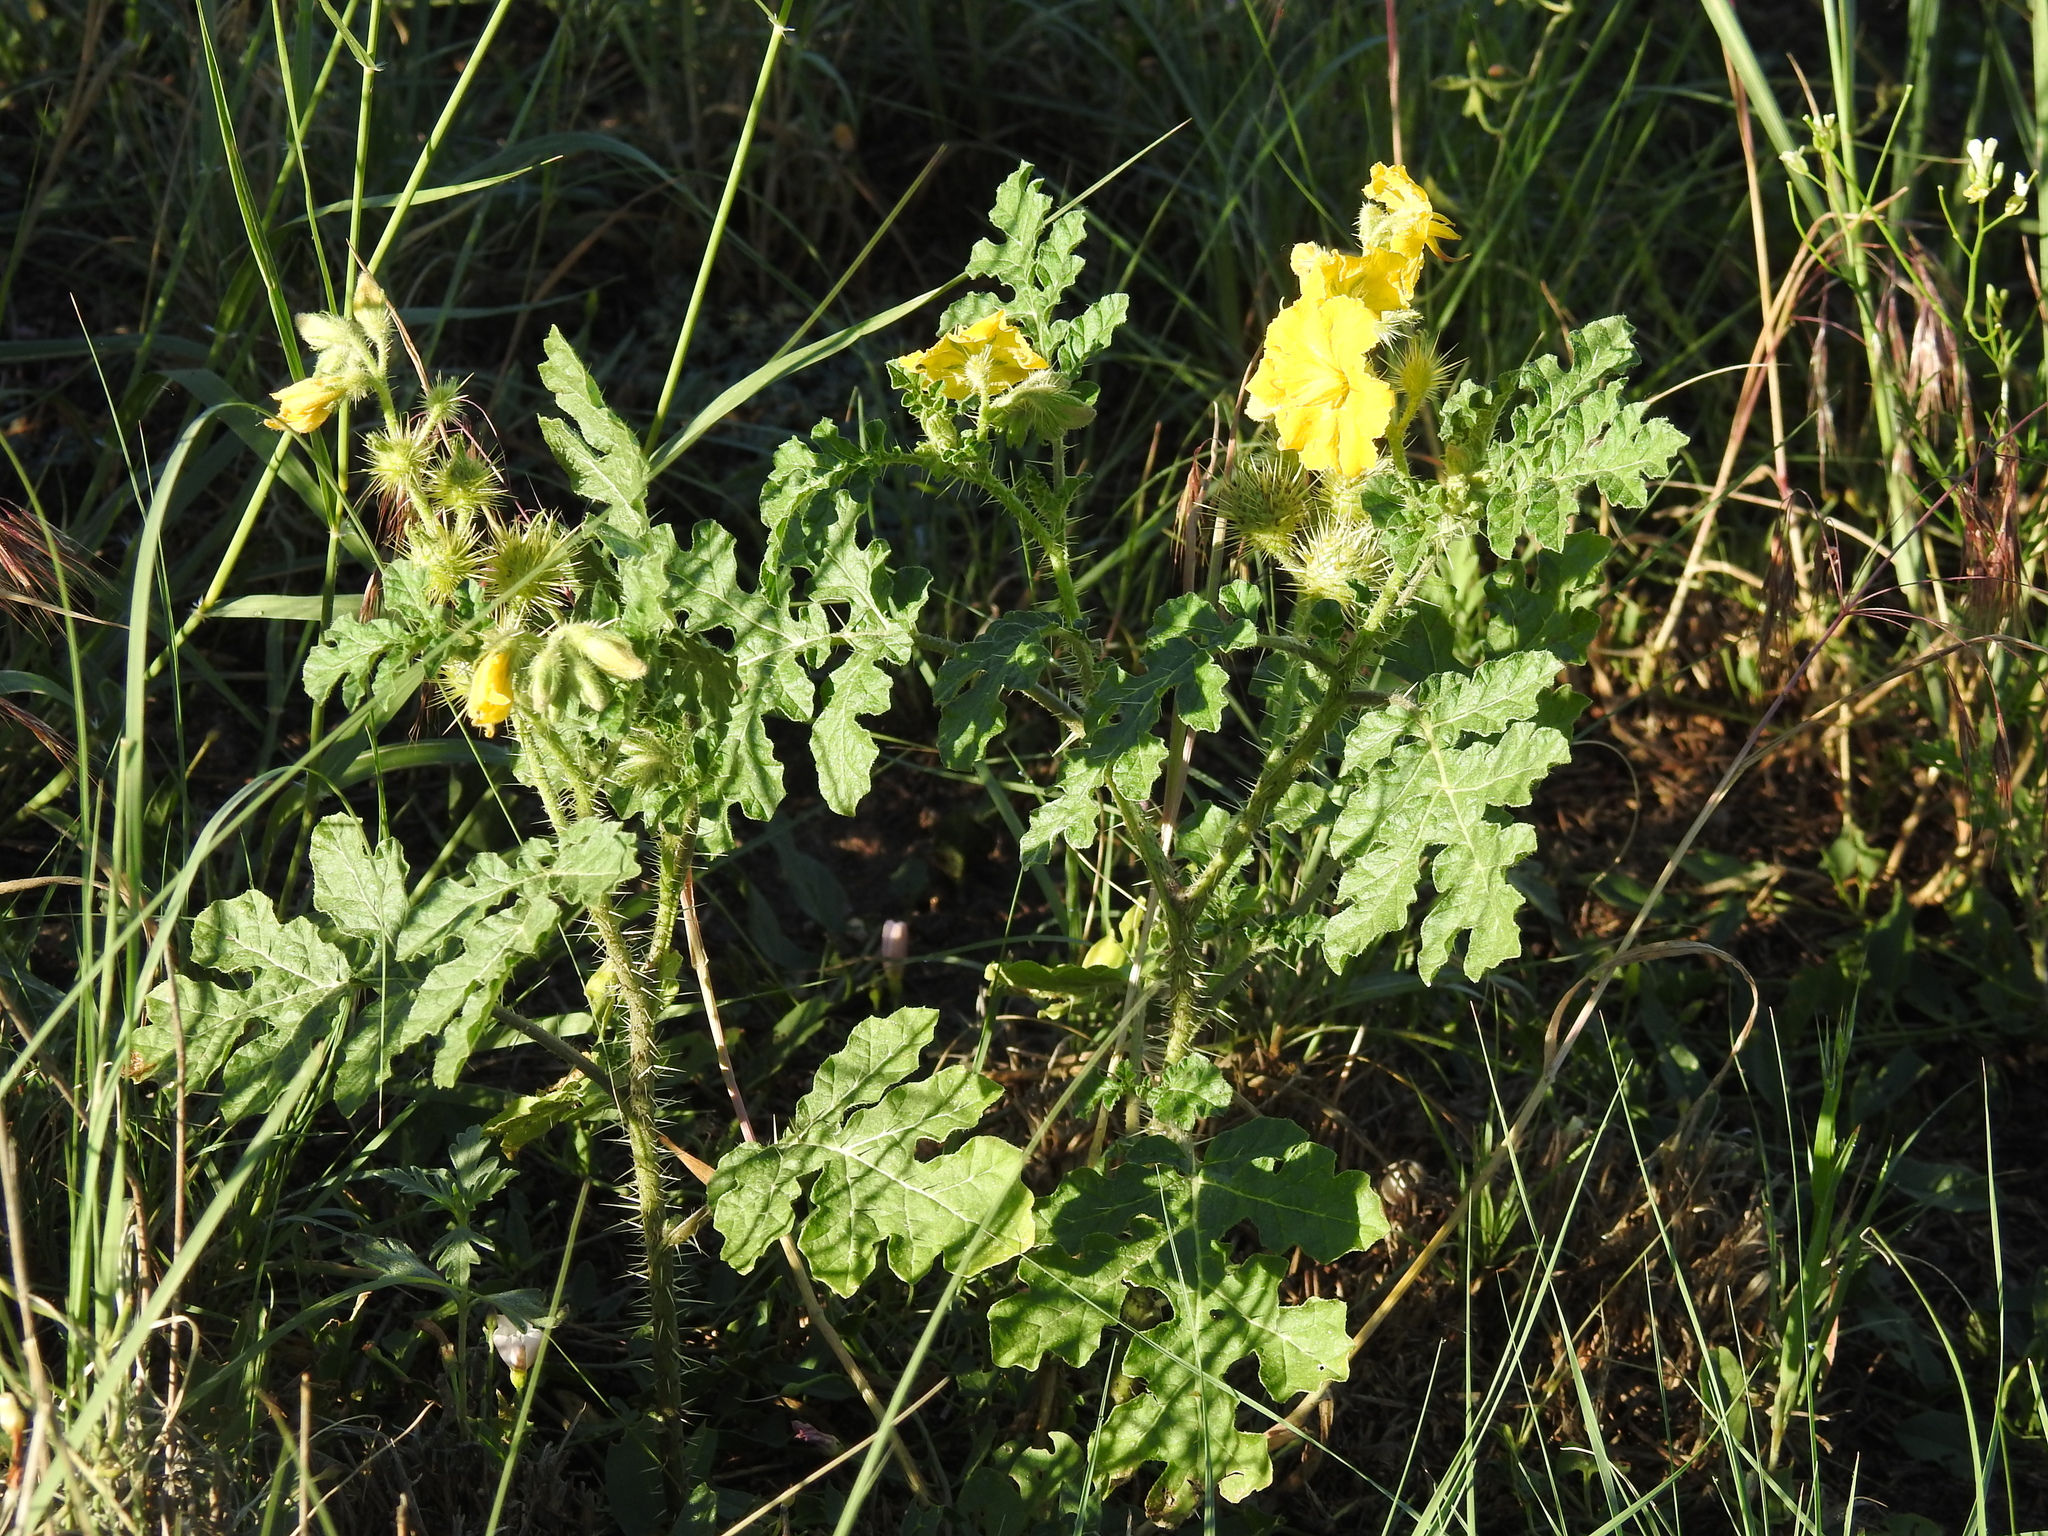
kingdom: Plantae
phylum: Tracheophyta
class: Magnoliopsida
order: Solanales
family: Solanaceae
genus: Solanum
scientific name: Solanum angustifolium
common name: Buffalobur nightshade
